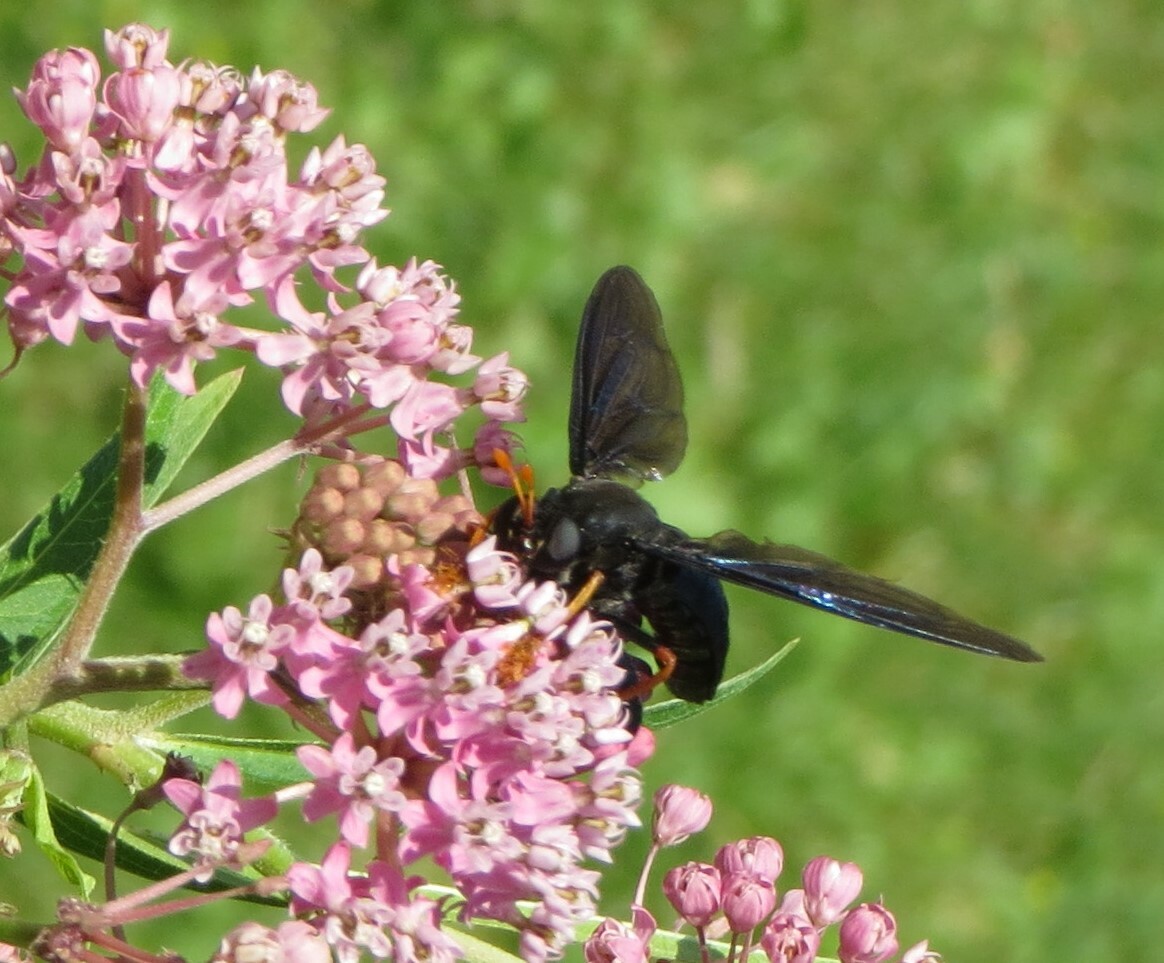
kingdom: Animalia
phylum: Arthropoda
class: Insecta
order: Diptera
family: Mydidae
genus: Mydas
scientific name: Mydas tibialis
